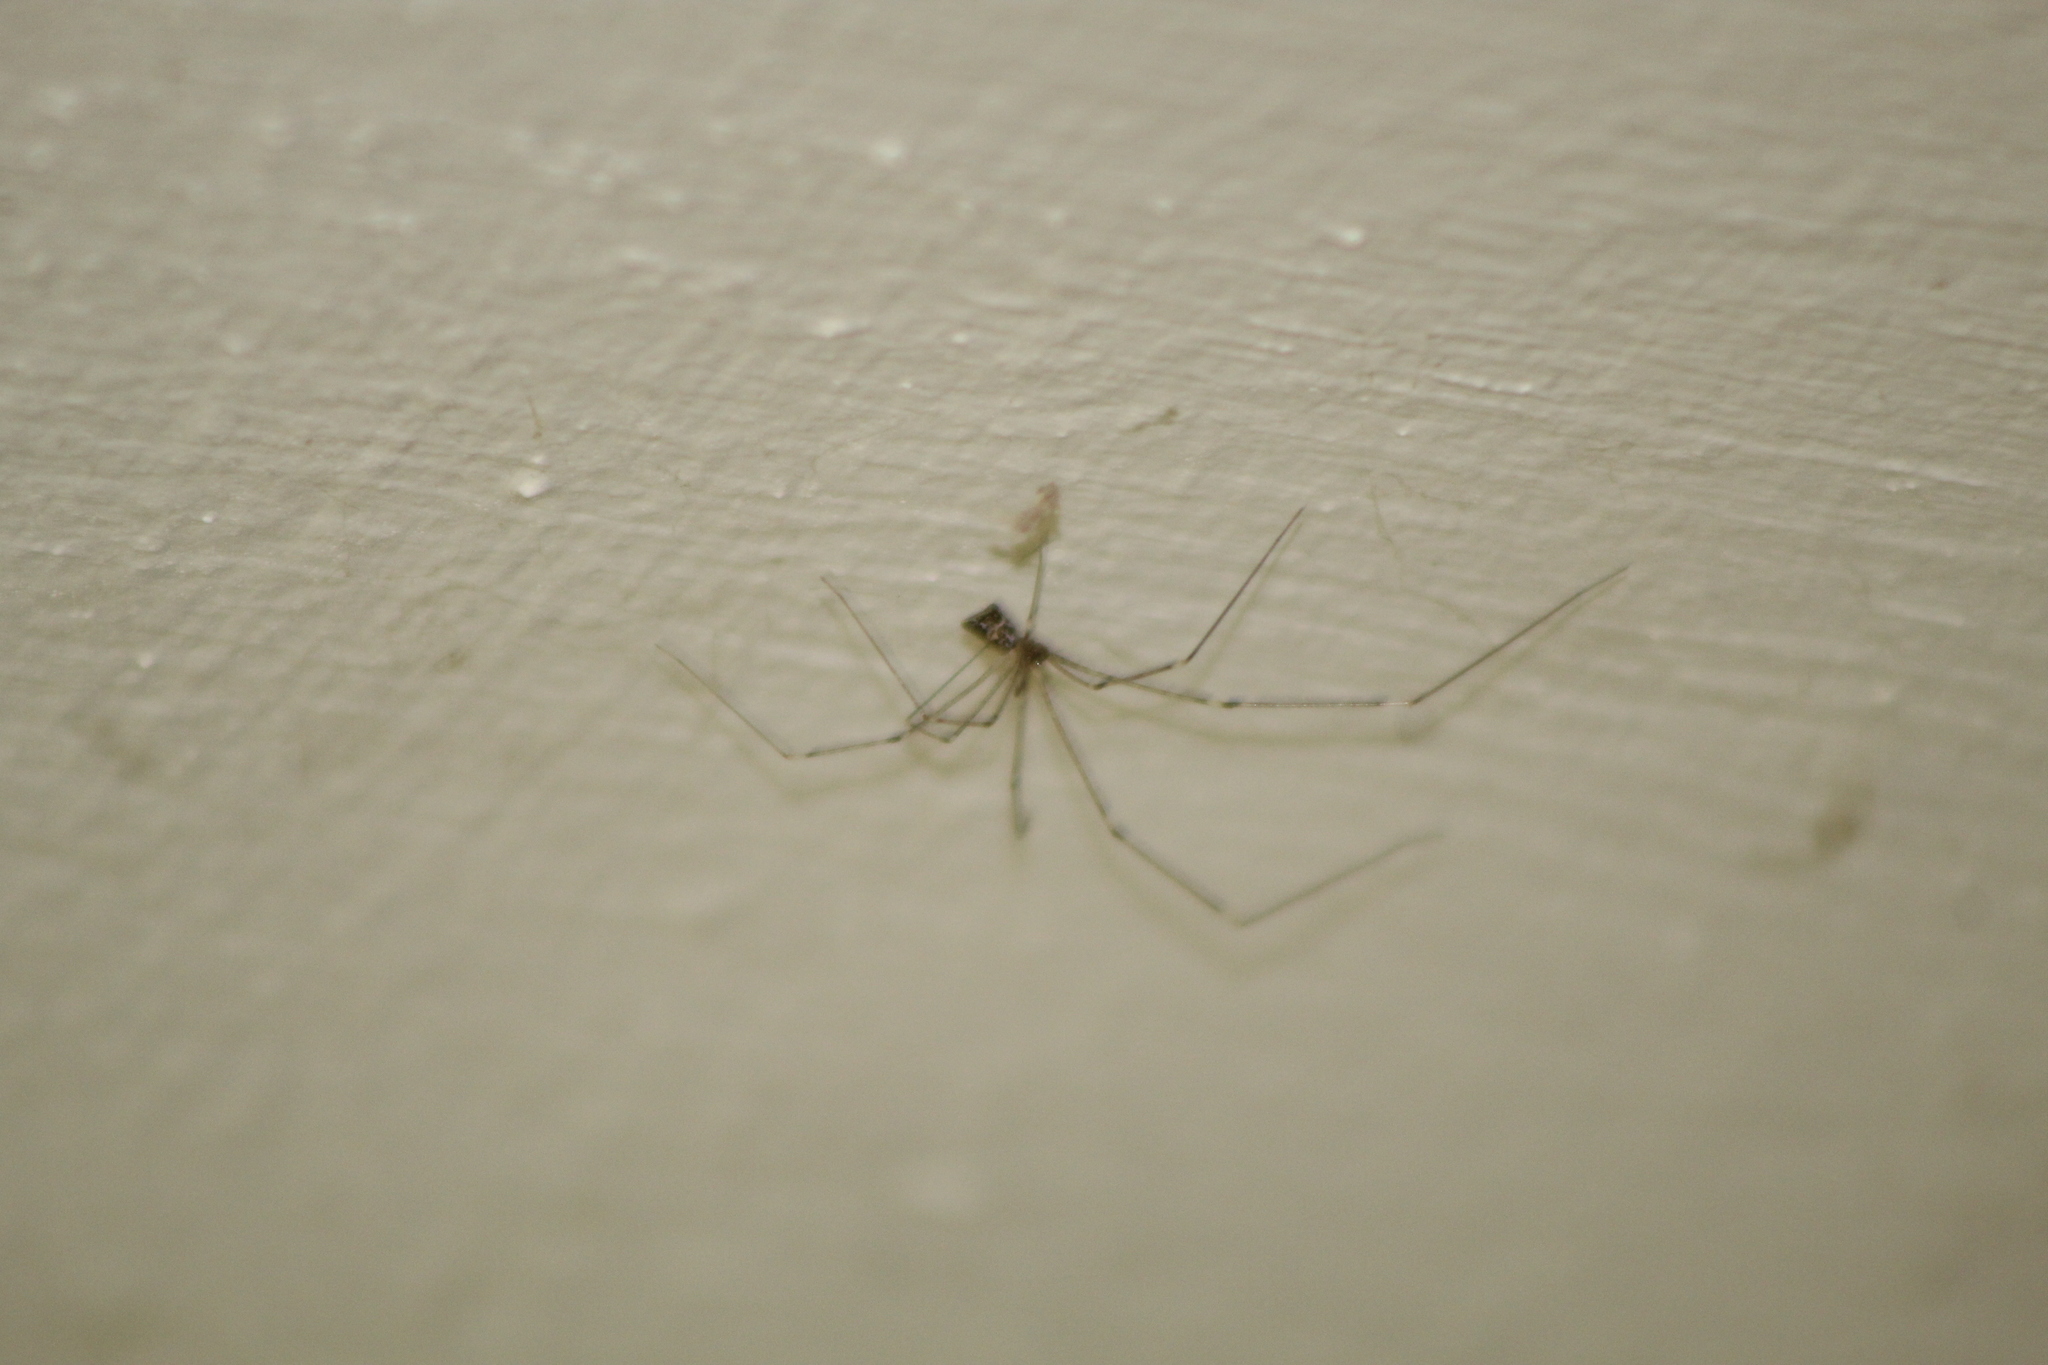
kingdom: Animalia
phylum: Arthropoda
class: Arachnida
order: Araneae
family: Pholcidae
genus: Crossopriza
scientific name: Crossopriza lyoni
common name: Cellar spiders
